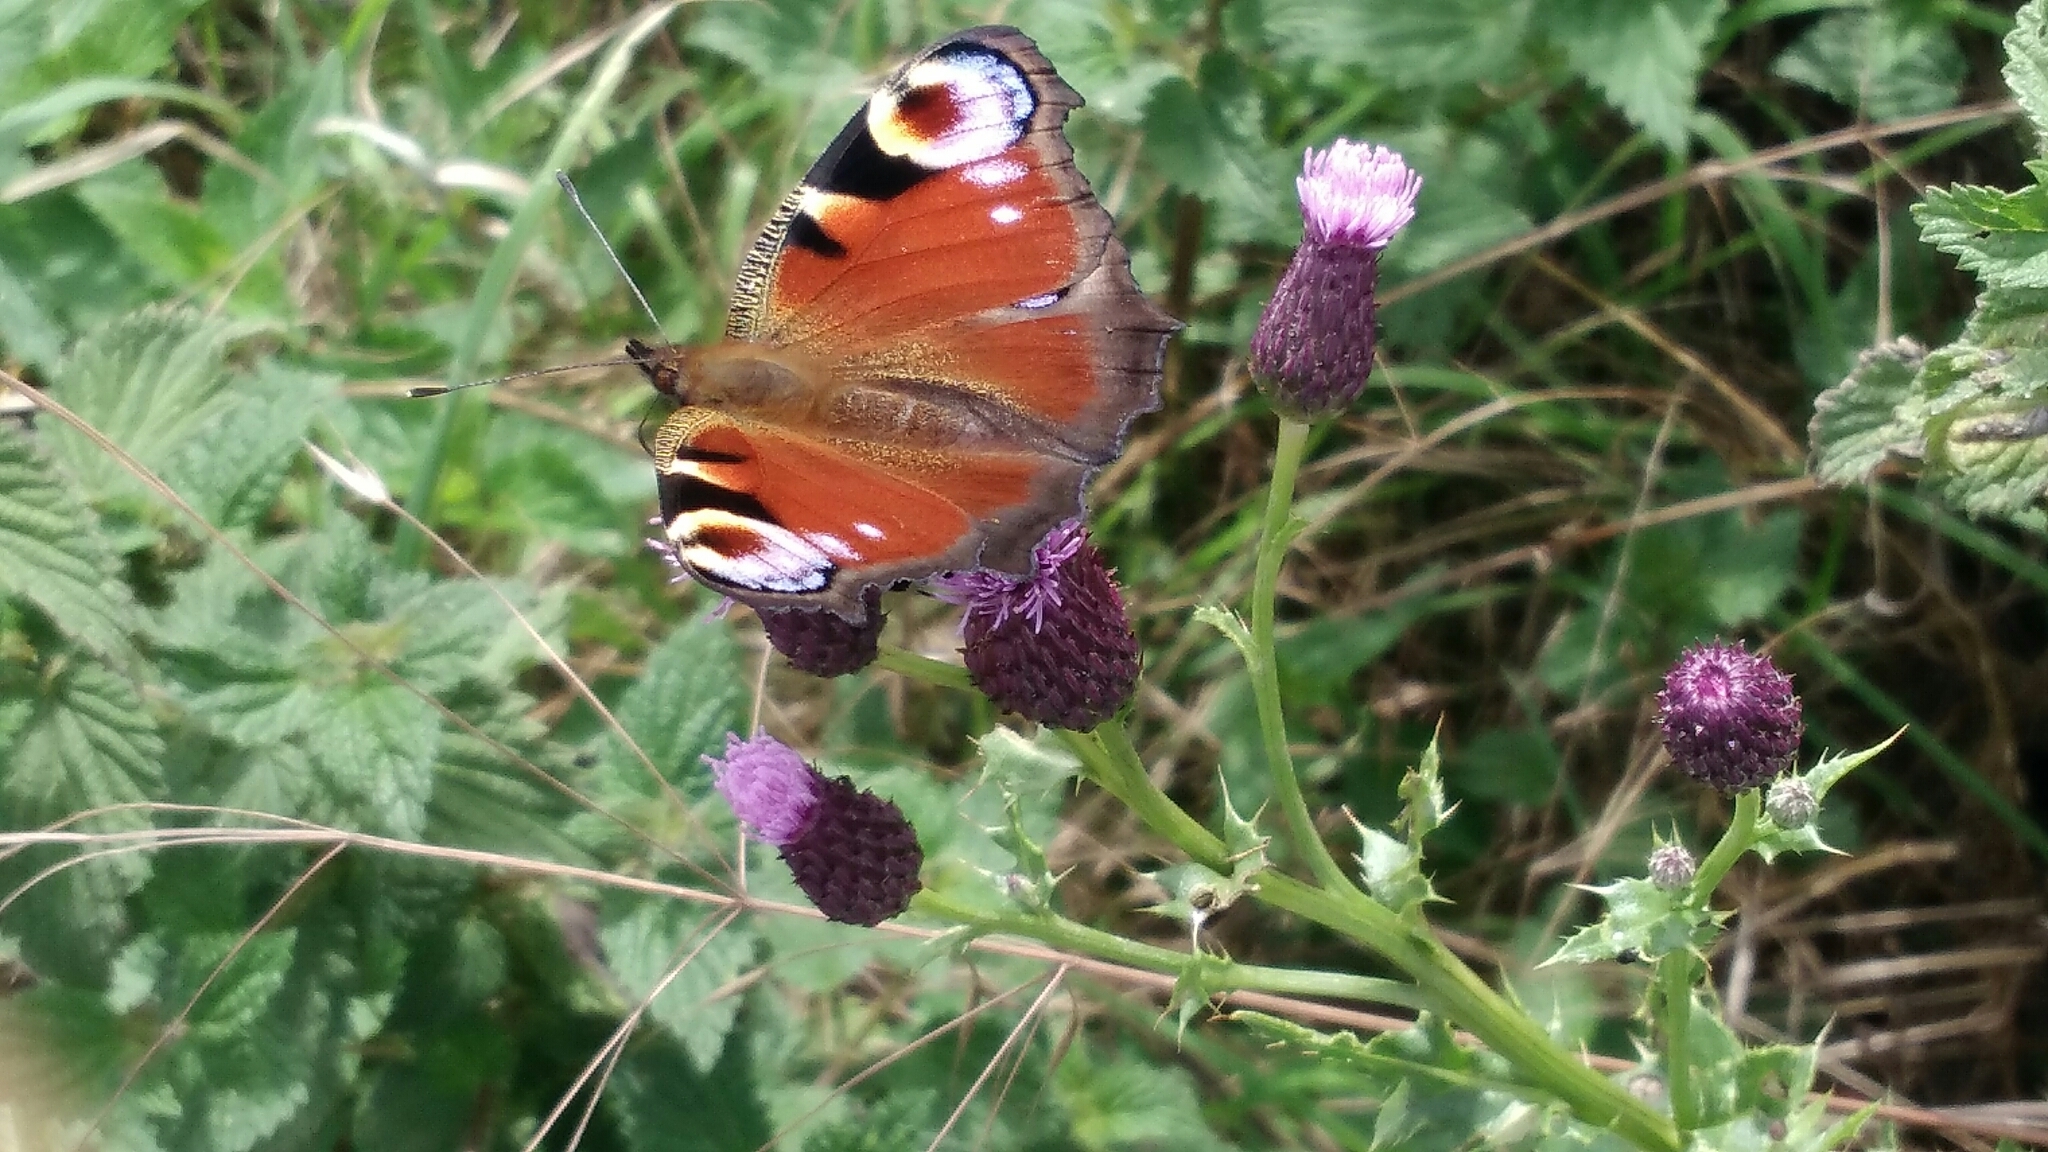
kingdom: Animalia
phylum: Arthropoda
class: Insecta
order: Lepidoptera
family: Nymphalidae
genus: Aglais
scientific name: Aglais io
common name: Peacock
